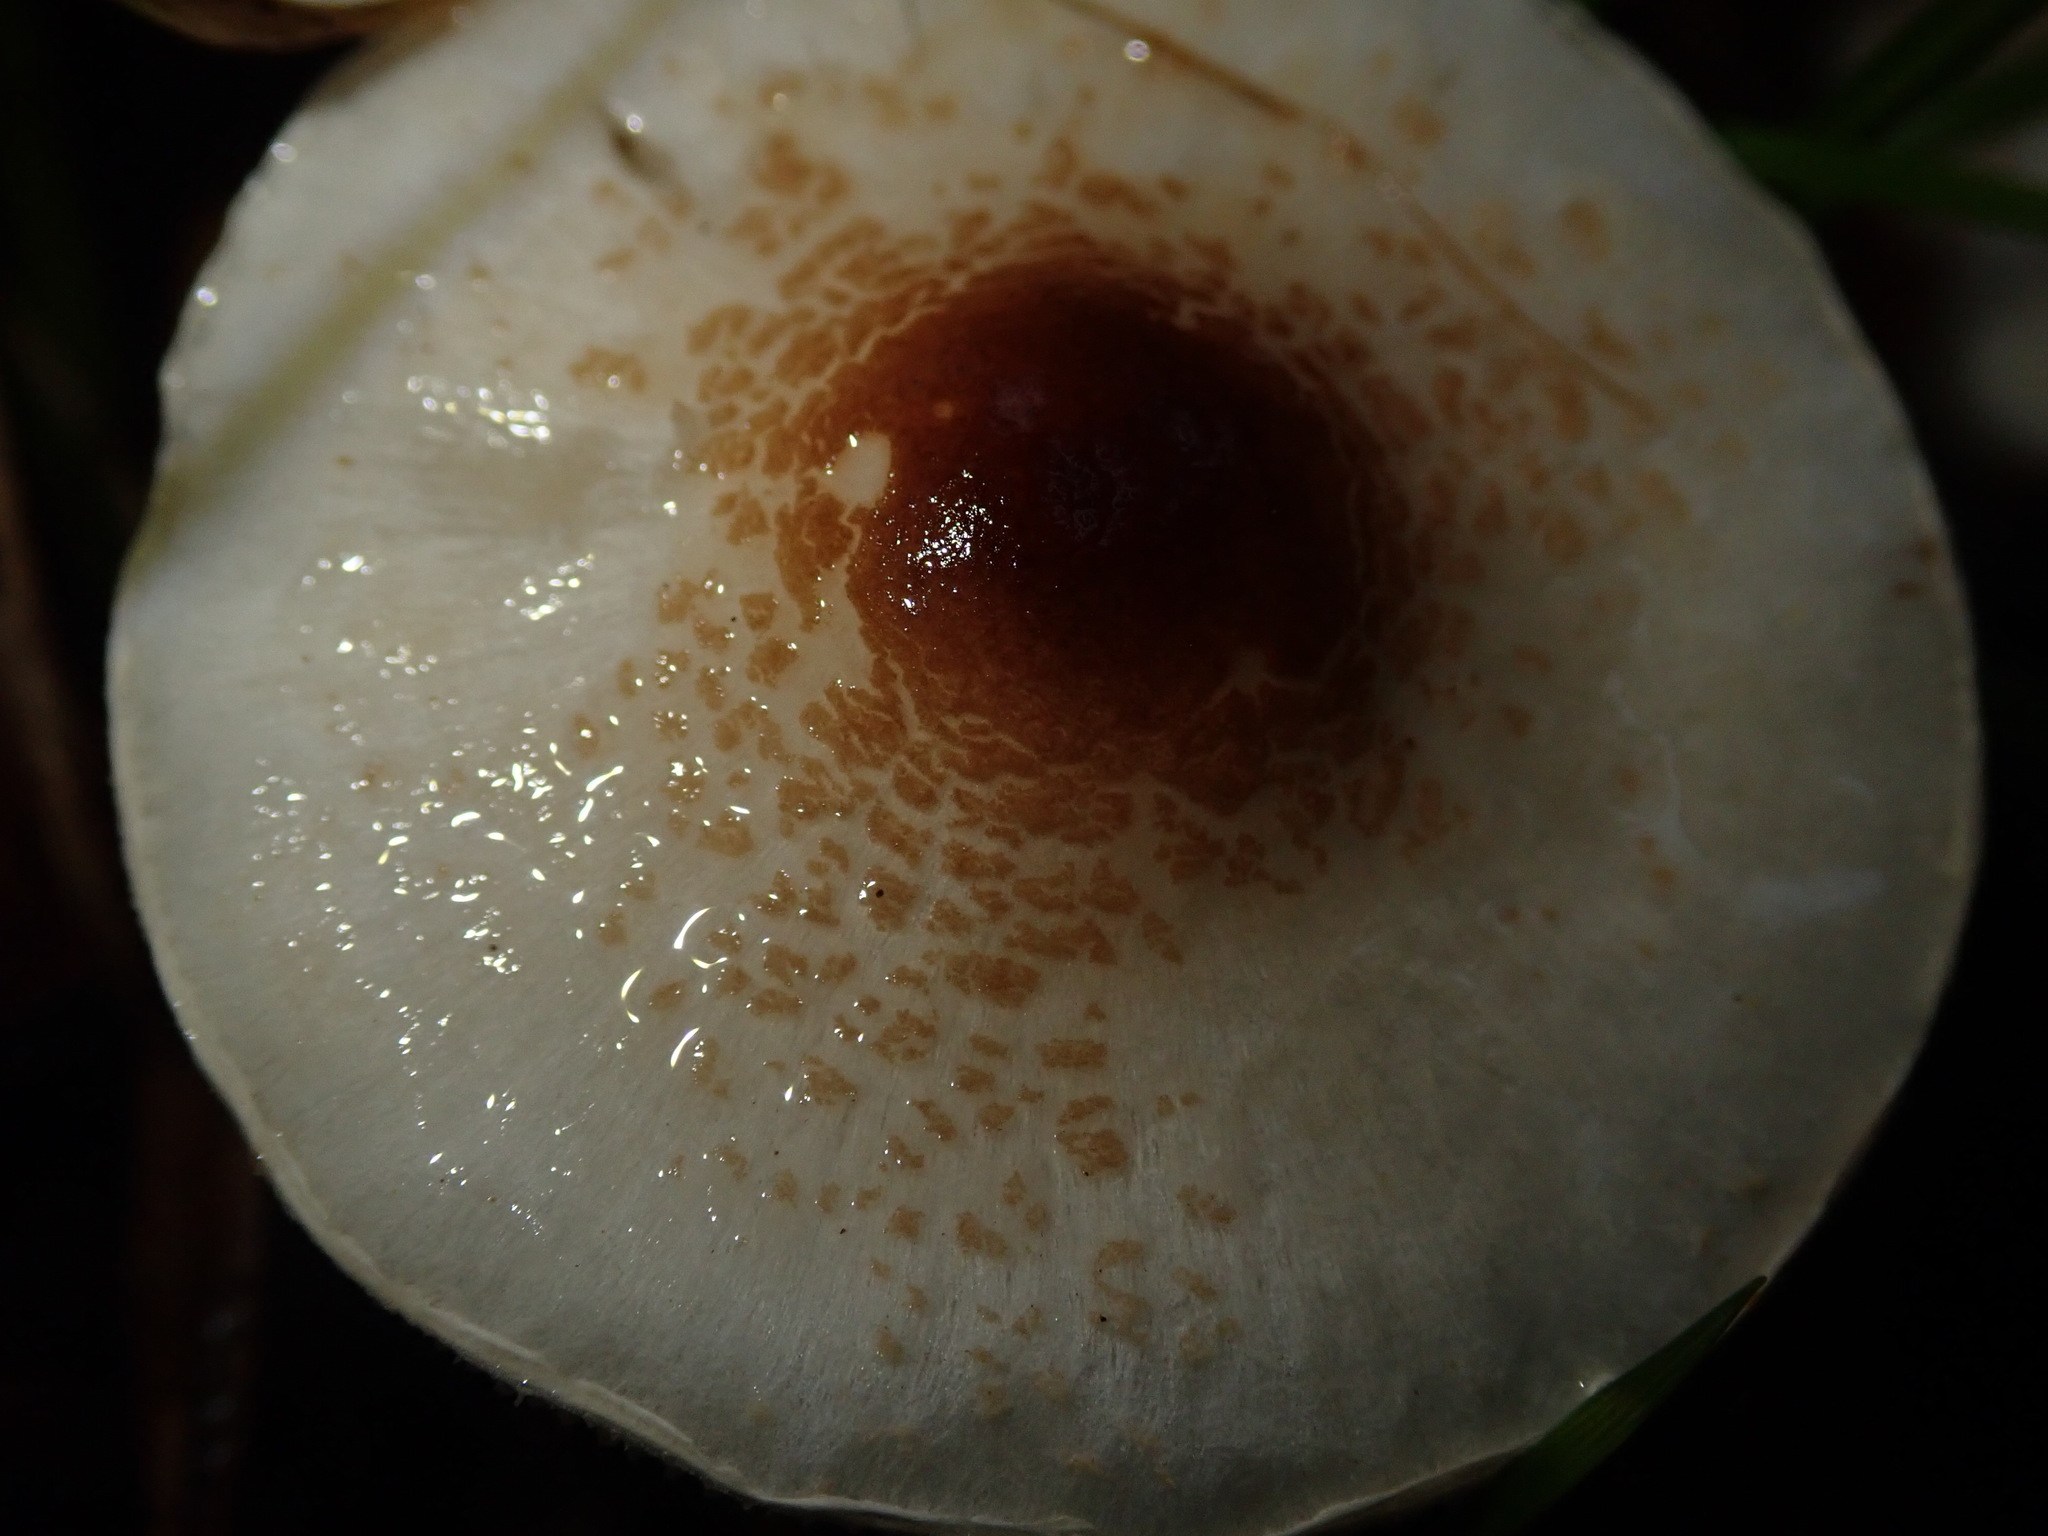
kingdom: Fungi
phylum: Basidiomycota
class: Agaricomycetes
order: Agaricales
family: Agaricaceae
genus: Lepiota
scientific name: Lepiota cristata
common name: Stinking dapperling
